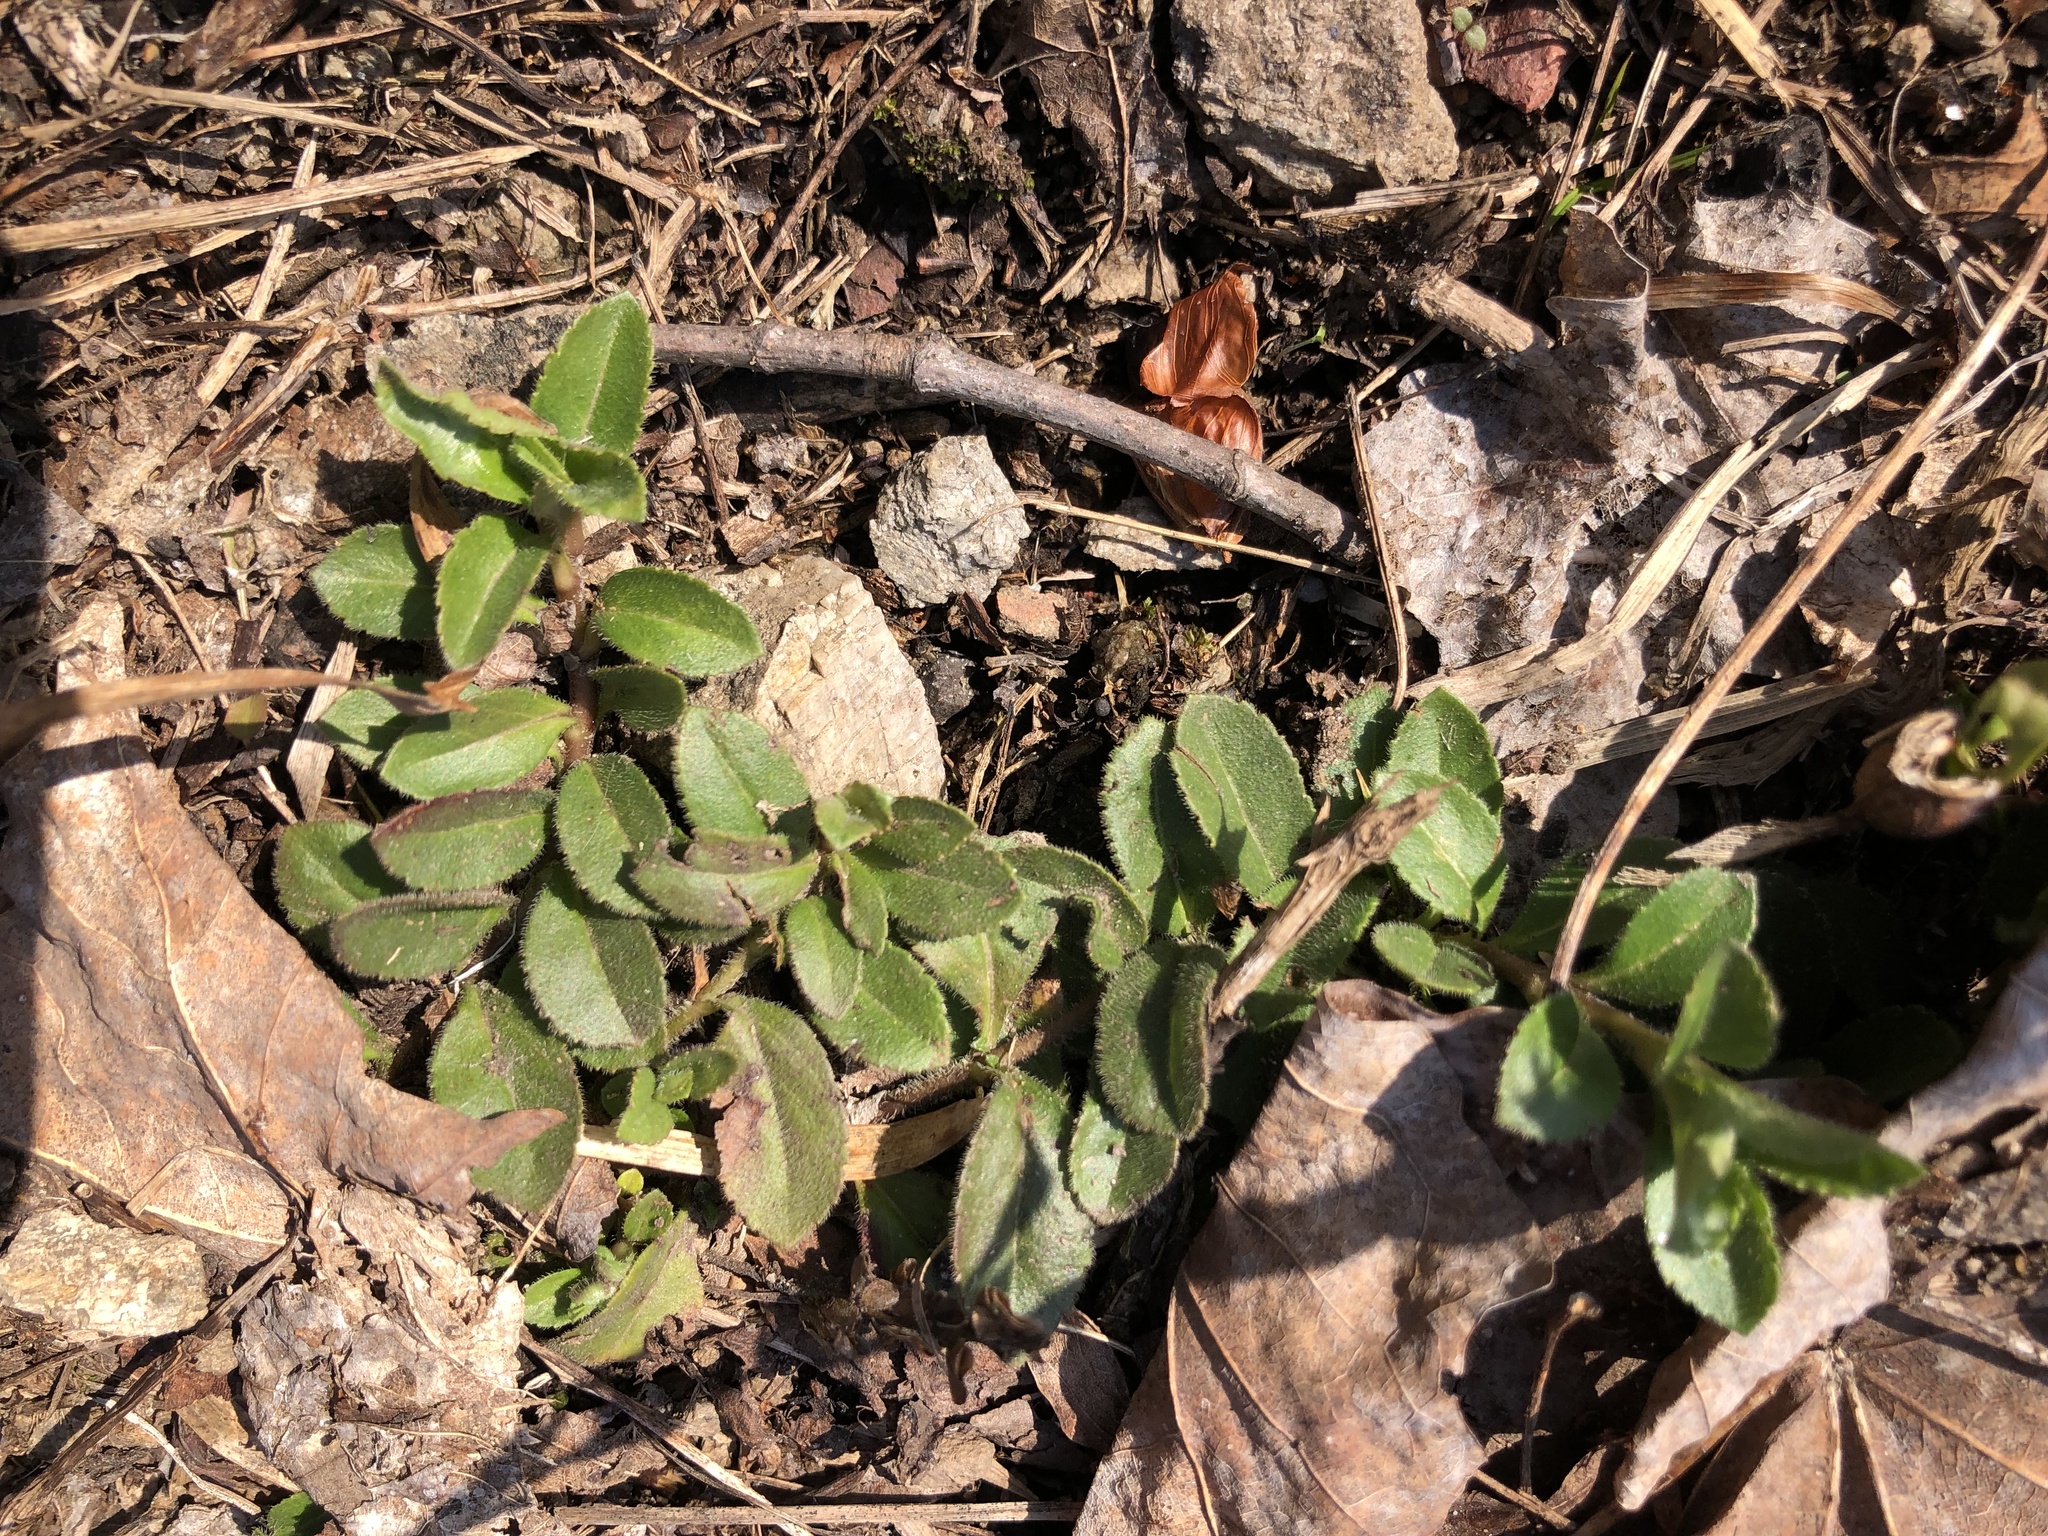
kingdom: Plantae
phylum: Tracheophyta
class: Magnoliopsida
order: Lamiales
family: Plantaginaceae
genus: Veronica
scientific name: Veronica officinalis
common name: Common speedwell
